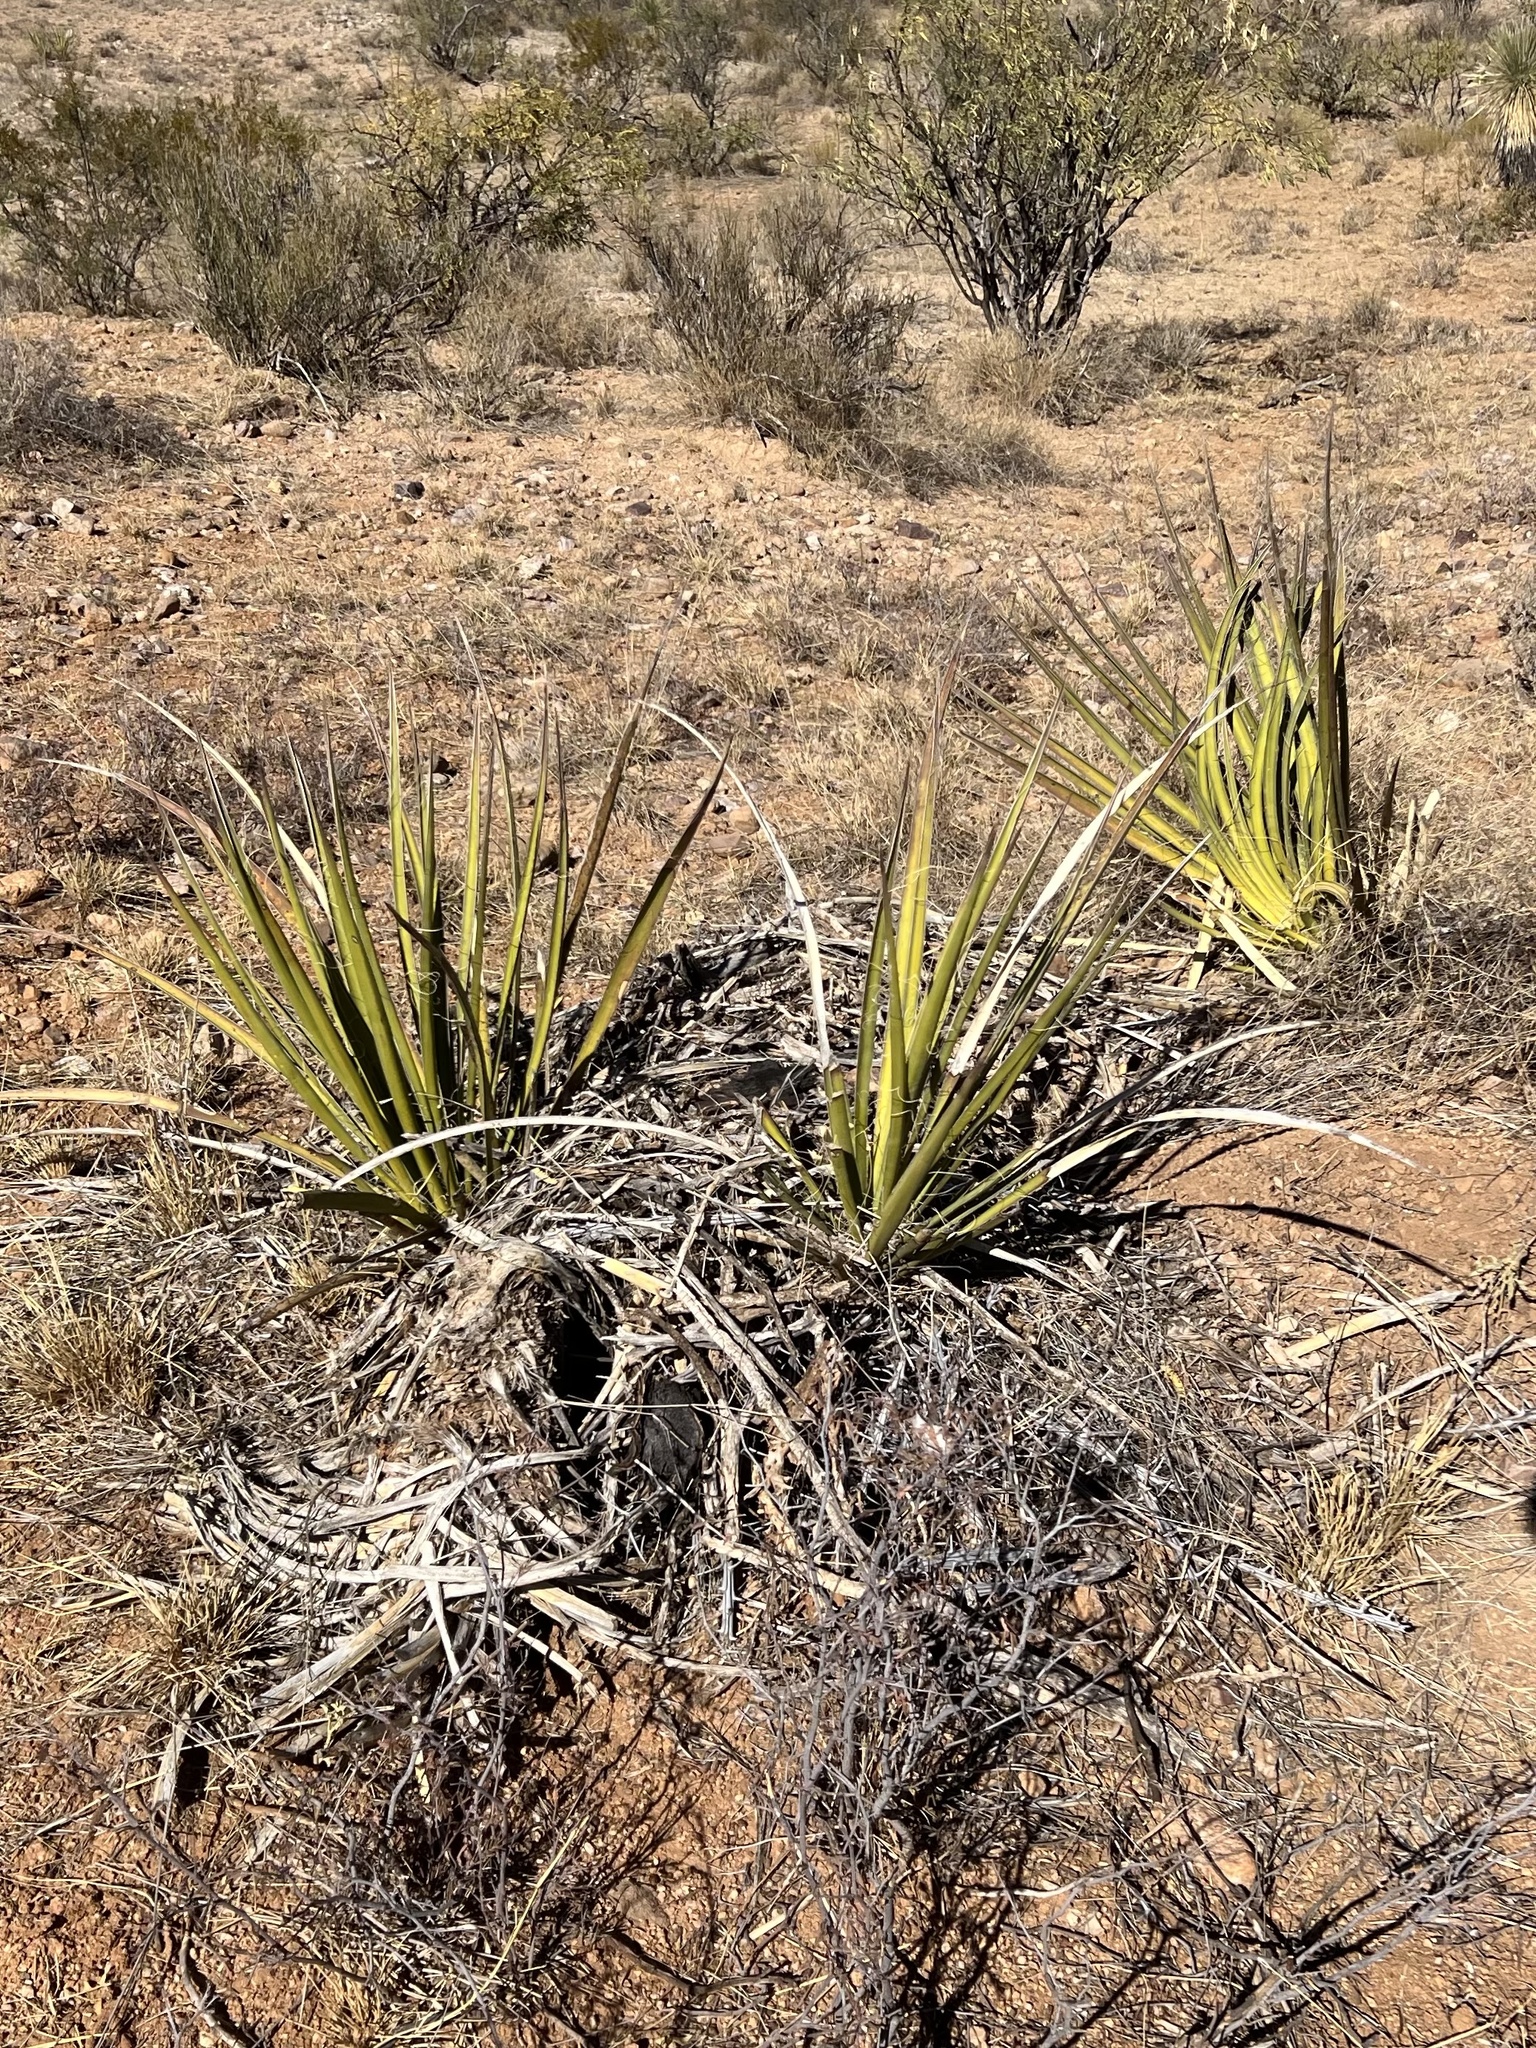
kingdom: Plantae
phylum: Tracheophyta
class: Liliopsida
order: Asparagales
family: Asparagaceae
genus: Yucca
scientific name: Yucca baccata
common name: Banana yucca
